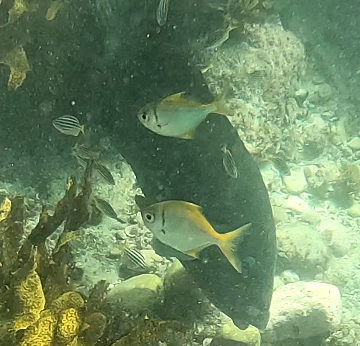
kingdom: Animalia
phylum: Chordata
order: Perciformes
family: Monodactylidae
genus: Schuettea
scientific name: Schuettea scalaripinnis
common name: Eastern pomfred
